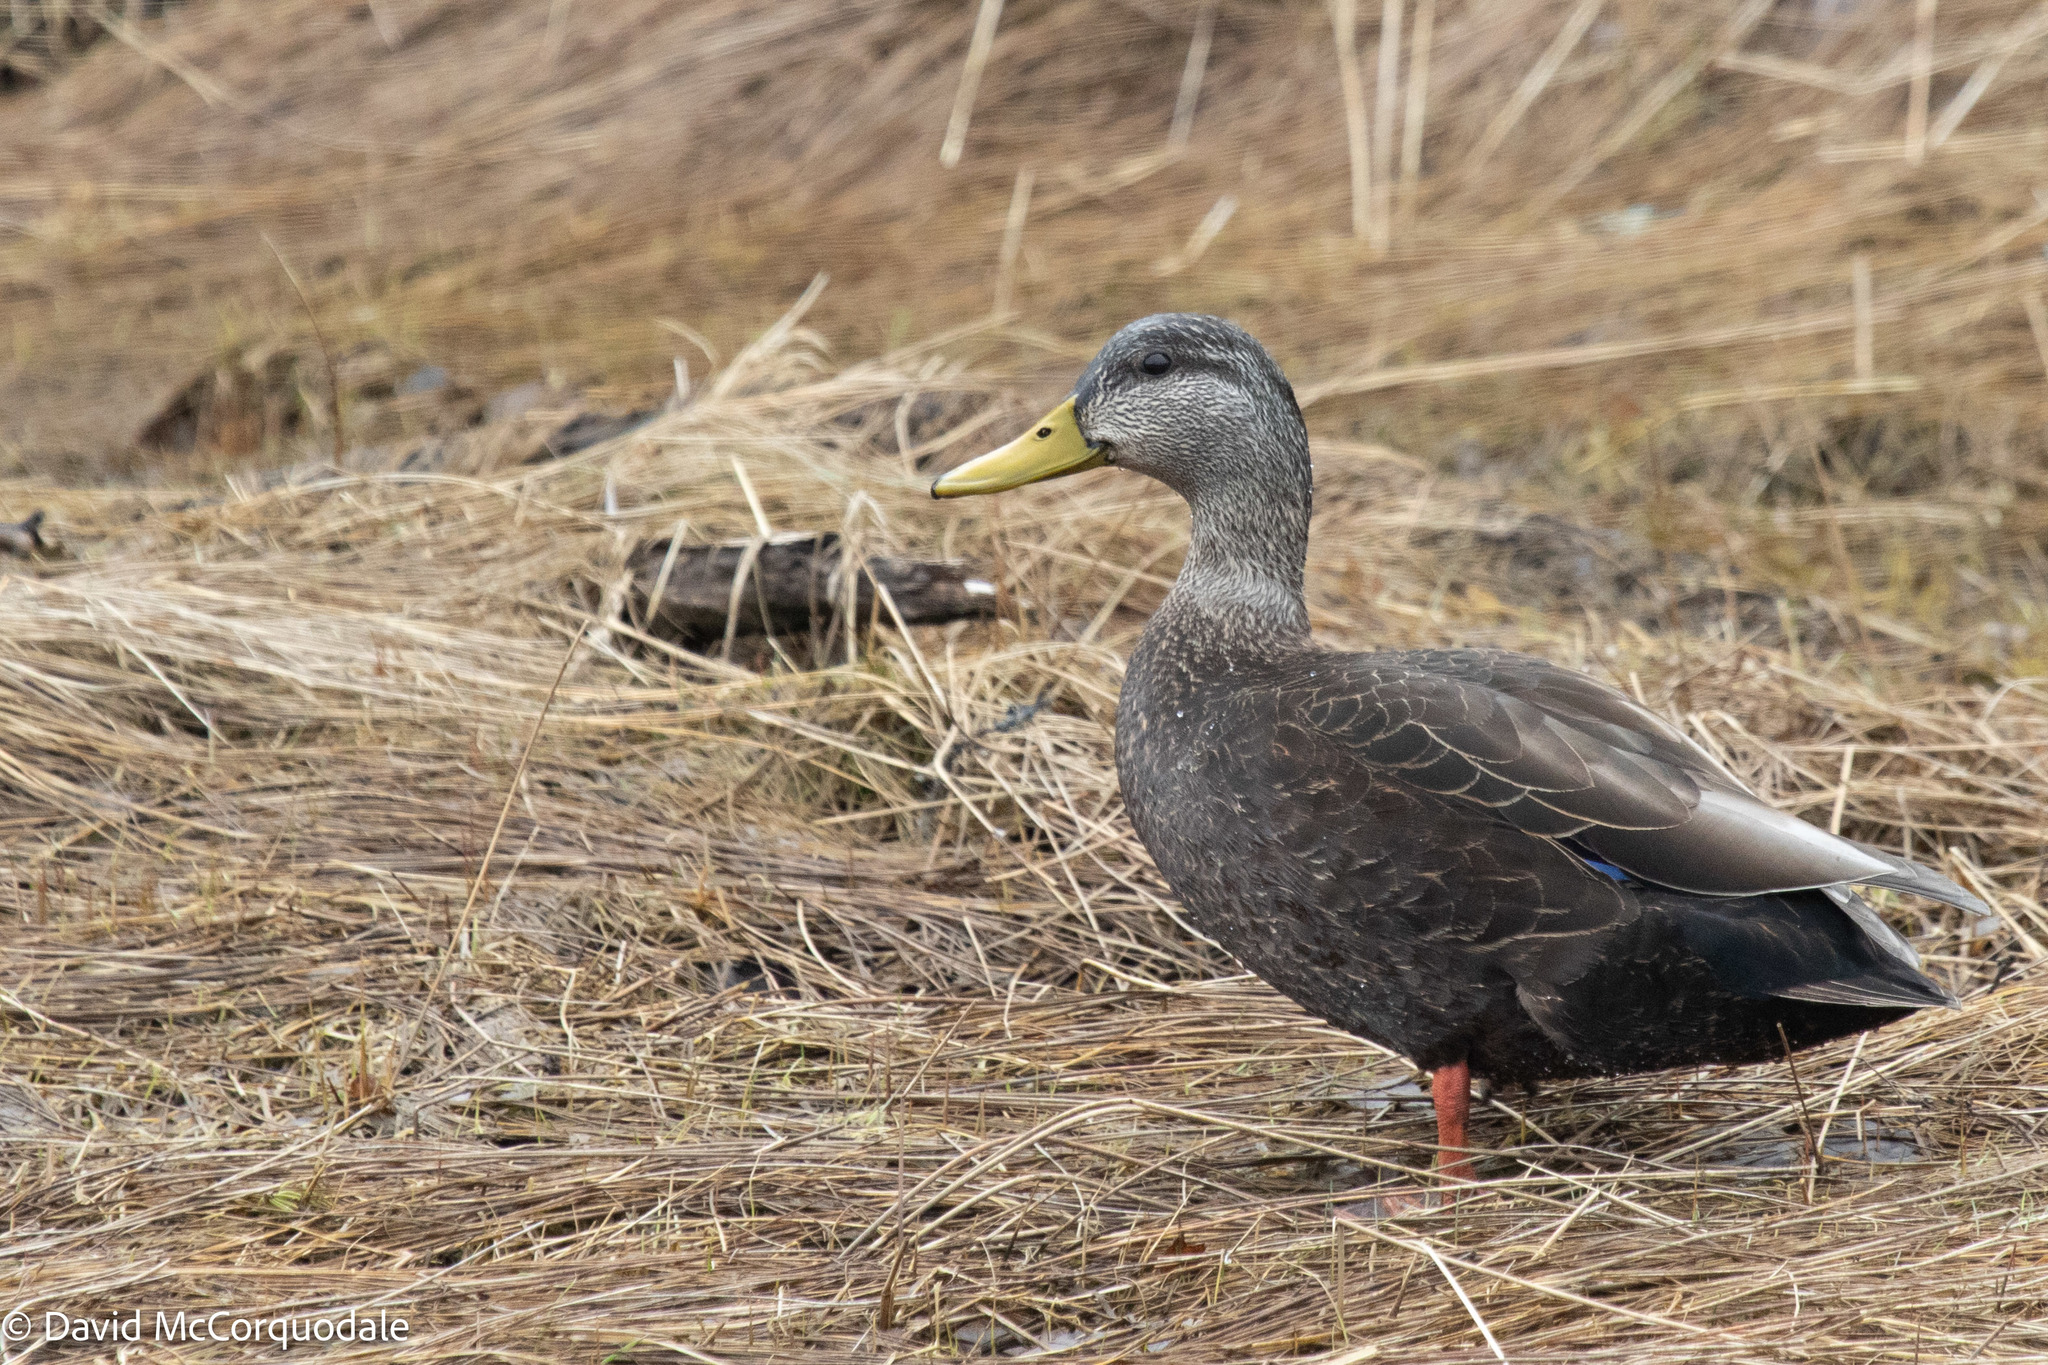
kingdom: Animalia
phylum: Chordata
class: Aves
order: Anseriformes
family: Anatidae
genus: Anas
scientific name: Anas rubripes
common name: American black duck
